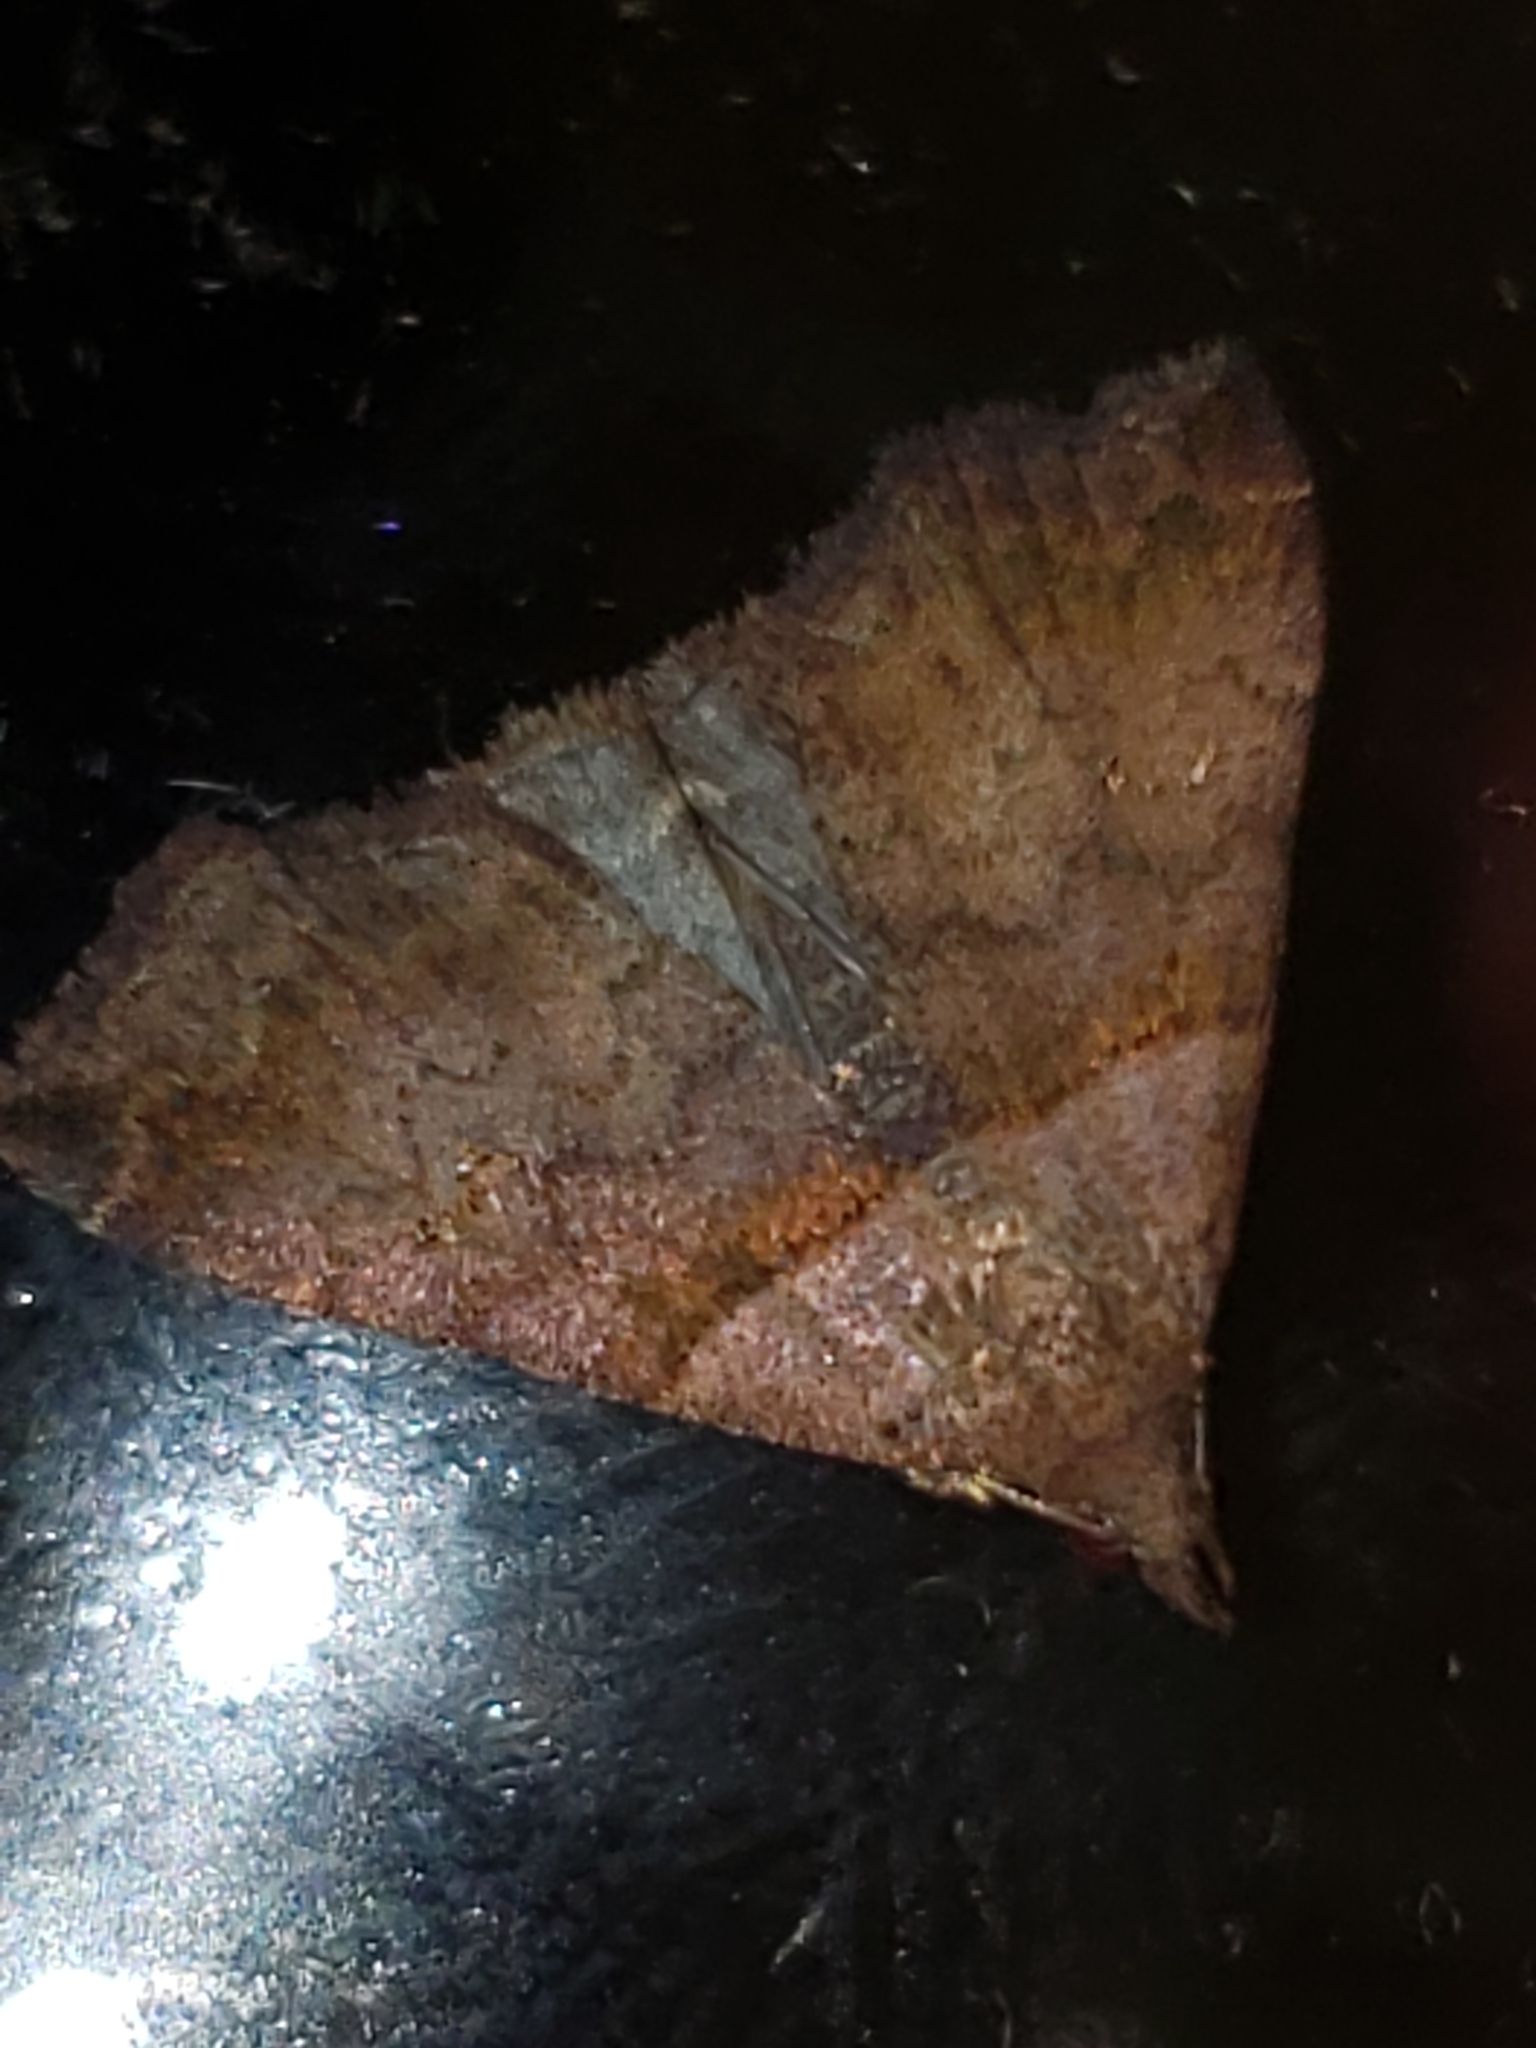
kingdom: Animalia
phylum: Arthropoda
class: Insecta
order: Lepidoptera
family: Erebidae
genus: Lascoria
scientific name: Lascoria ambigualis
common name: Ambiguous moth
